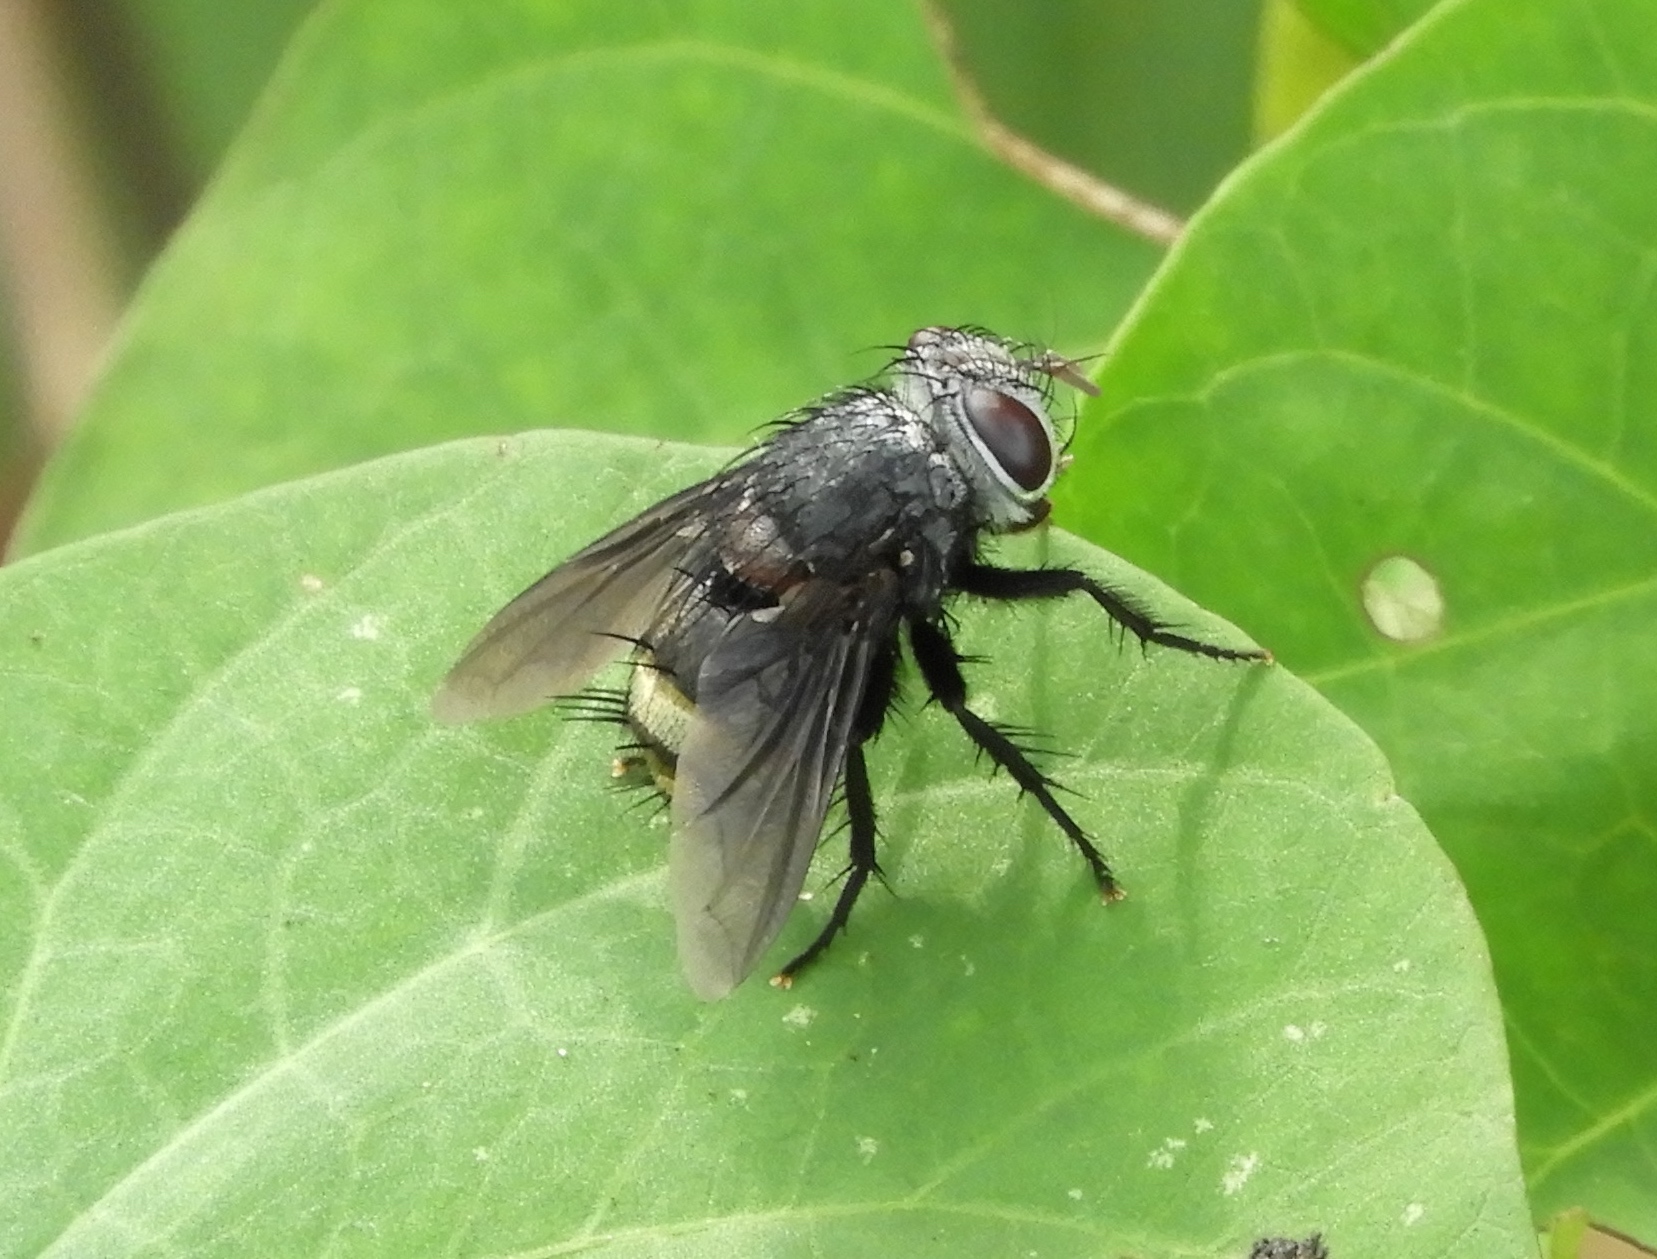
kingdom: Animalia
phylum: Arthropoda
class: Insecta
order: Diptera
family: Tachinidae
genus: Belvosia
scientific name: Belvosia
